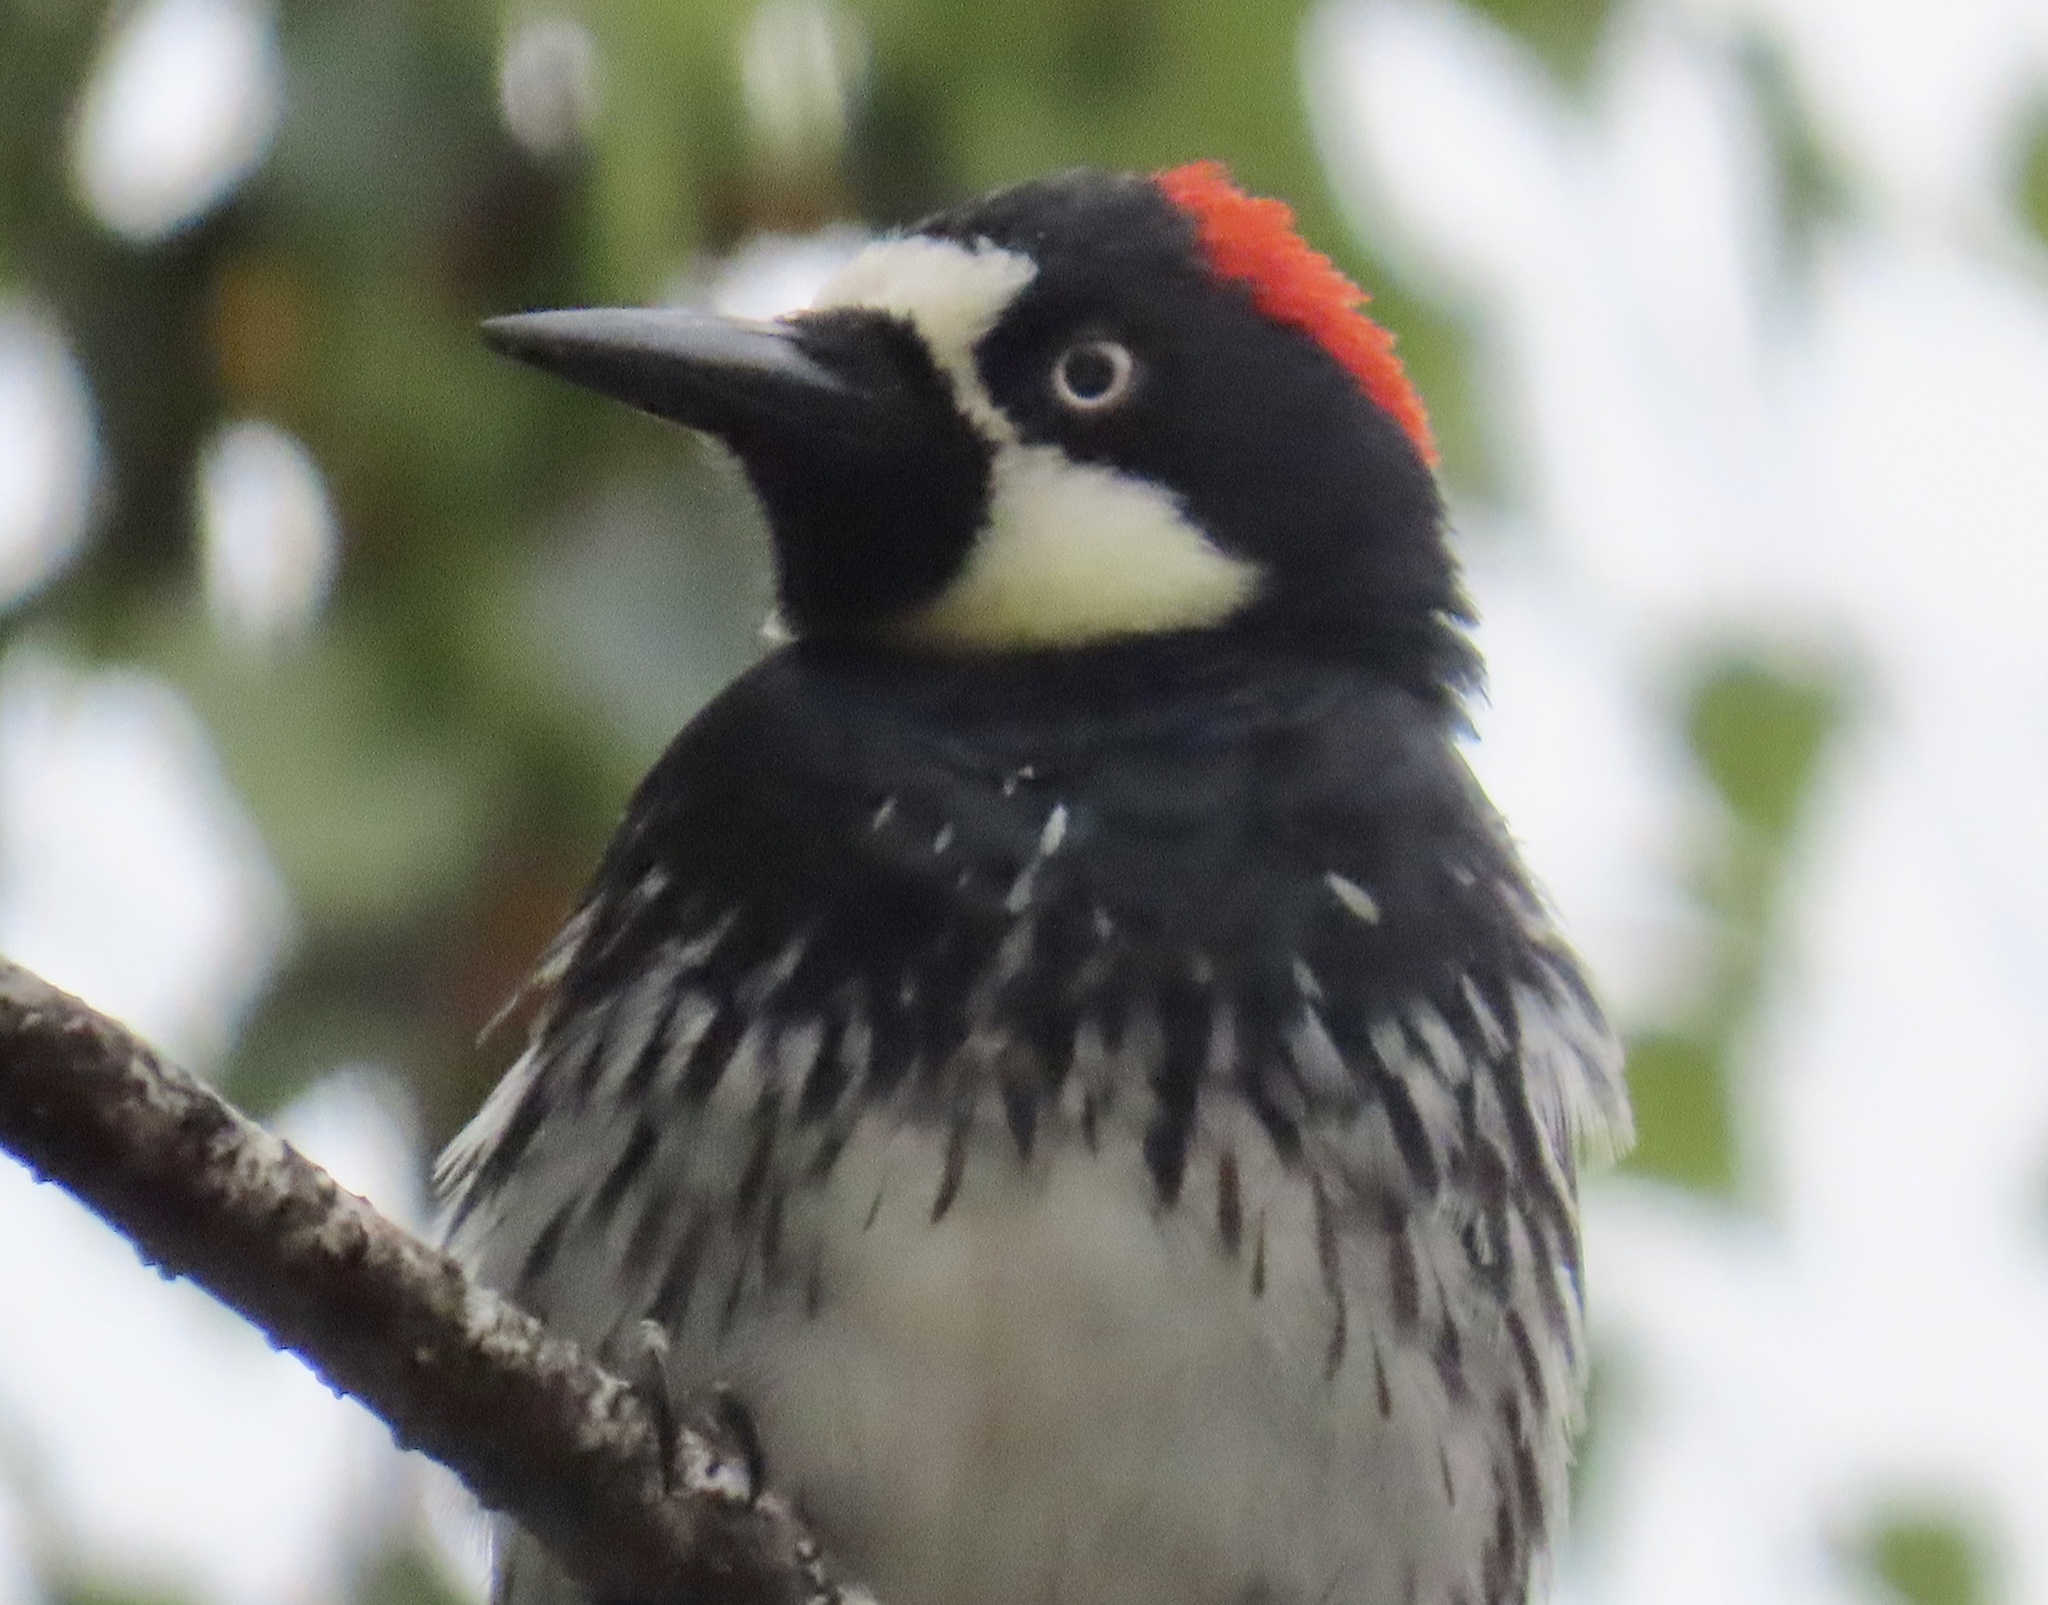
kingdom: Animalia
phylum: Chordata
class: Aves
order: Piciformes
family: Picidae
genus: Melanerpes
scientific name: Melanerpes formicivorus
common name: Acorn woodpecker
